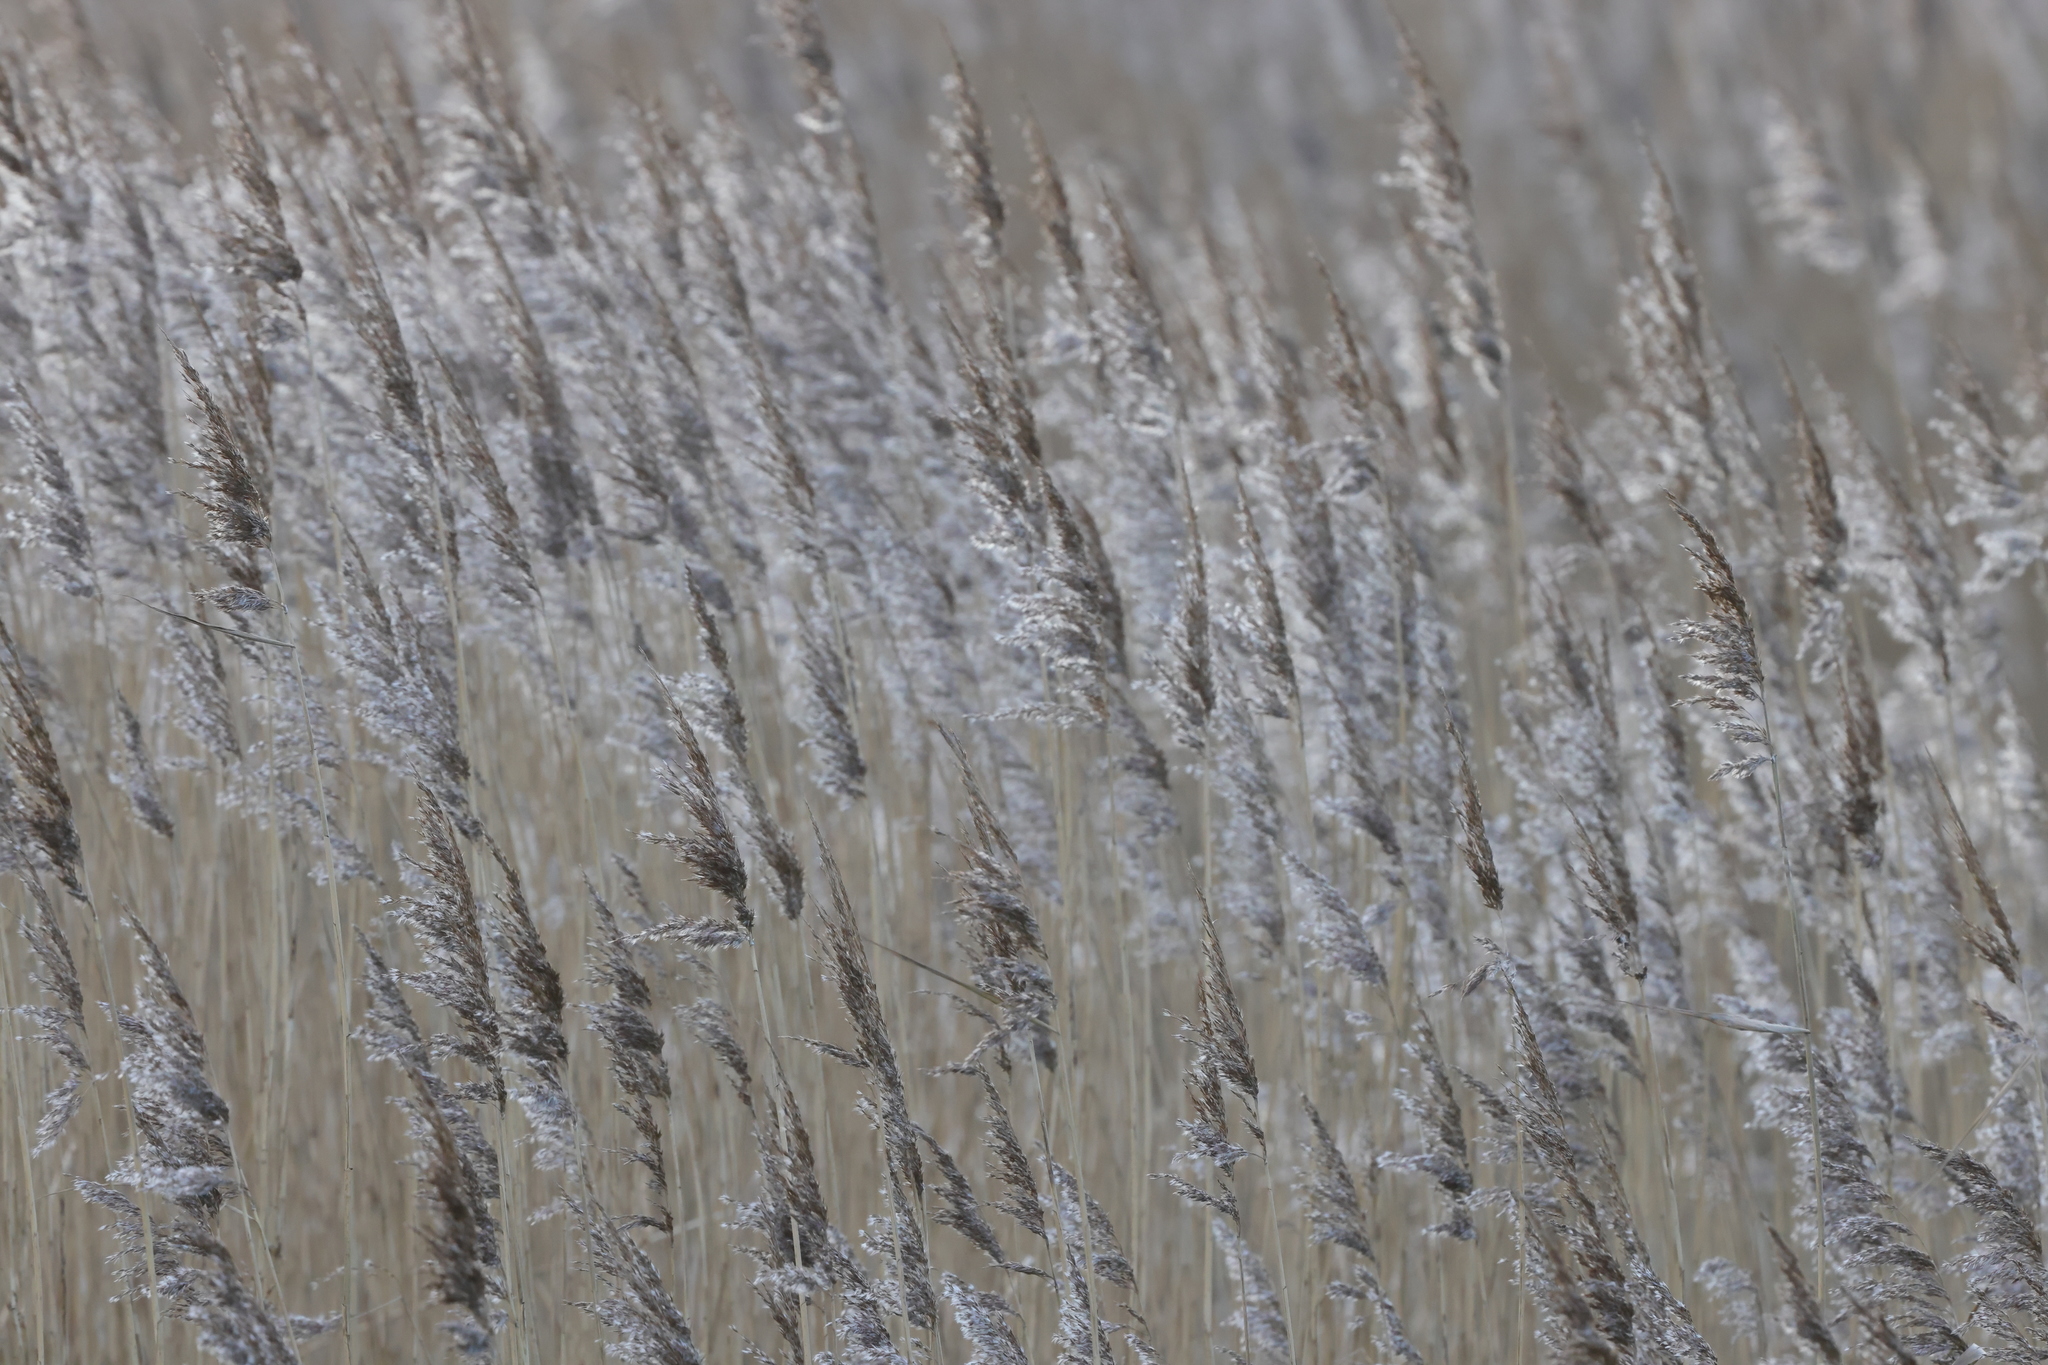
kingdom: Plantae
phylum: Tracheophyta
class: Liliopsida
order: Poales
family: Poaceae
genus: Phragmites
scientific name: Phragmites australis
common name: Common reed
